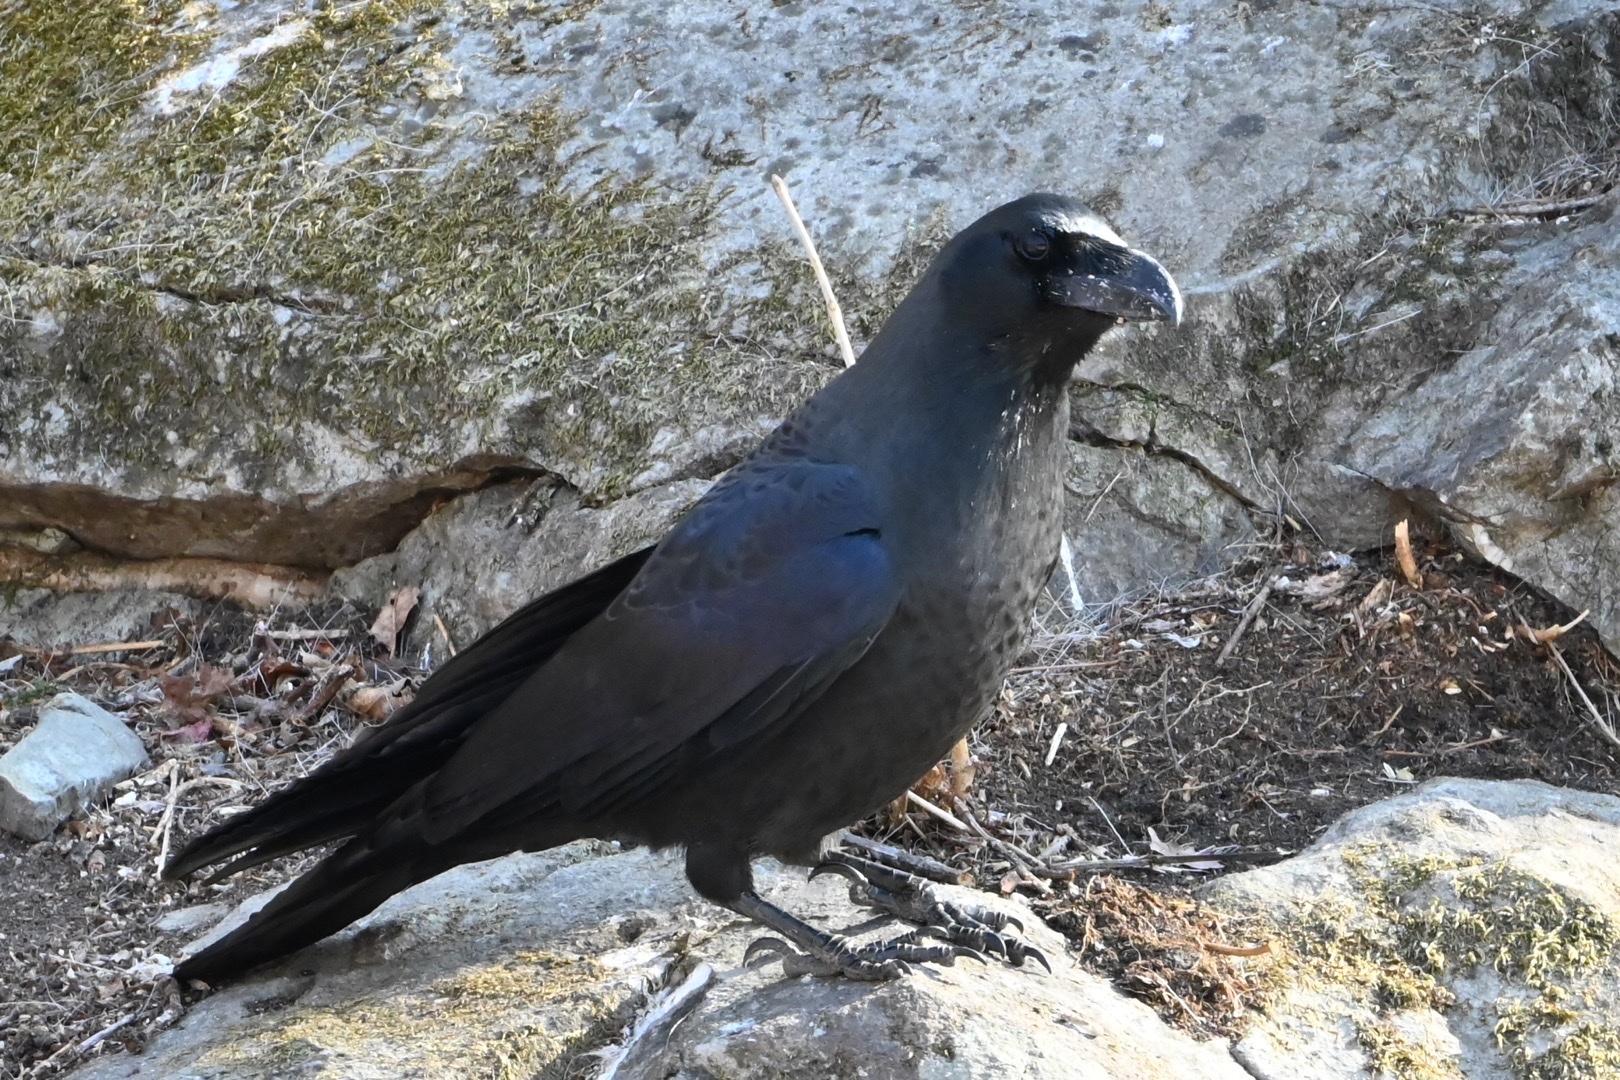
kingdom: Animalia
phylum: Chordata
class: Aves
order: Passeriformes
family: Corvidae
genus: Corvus
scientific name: Corvus macrorhynchos
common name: Large-billed crow
